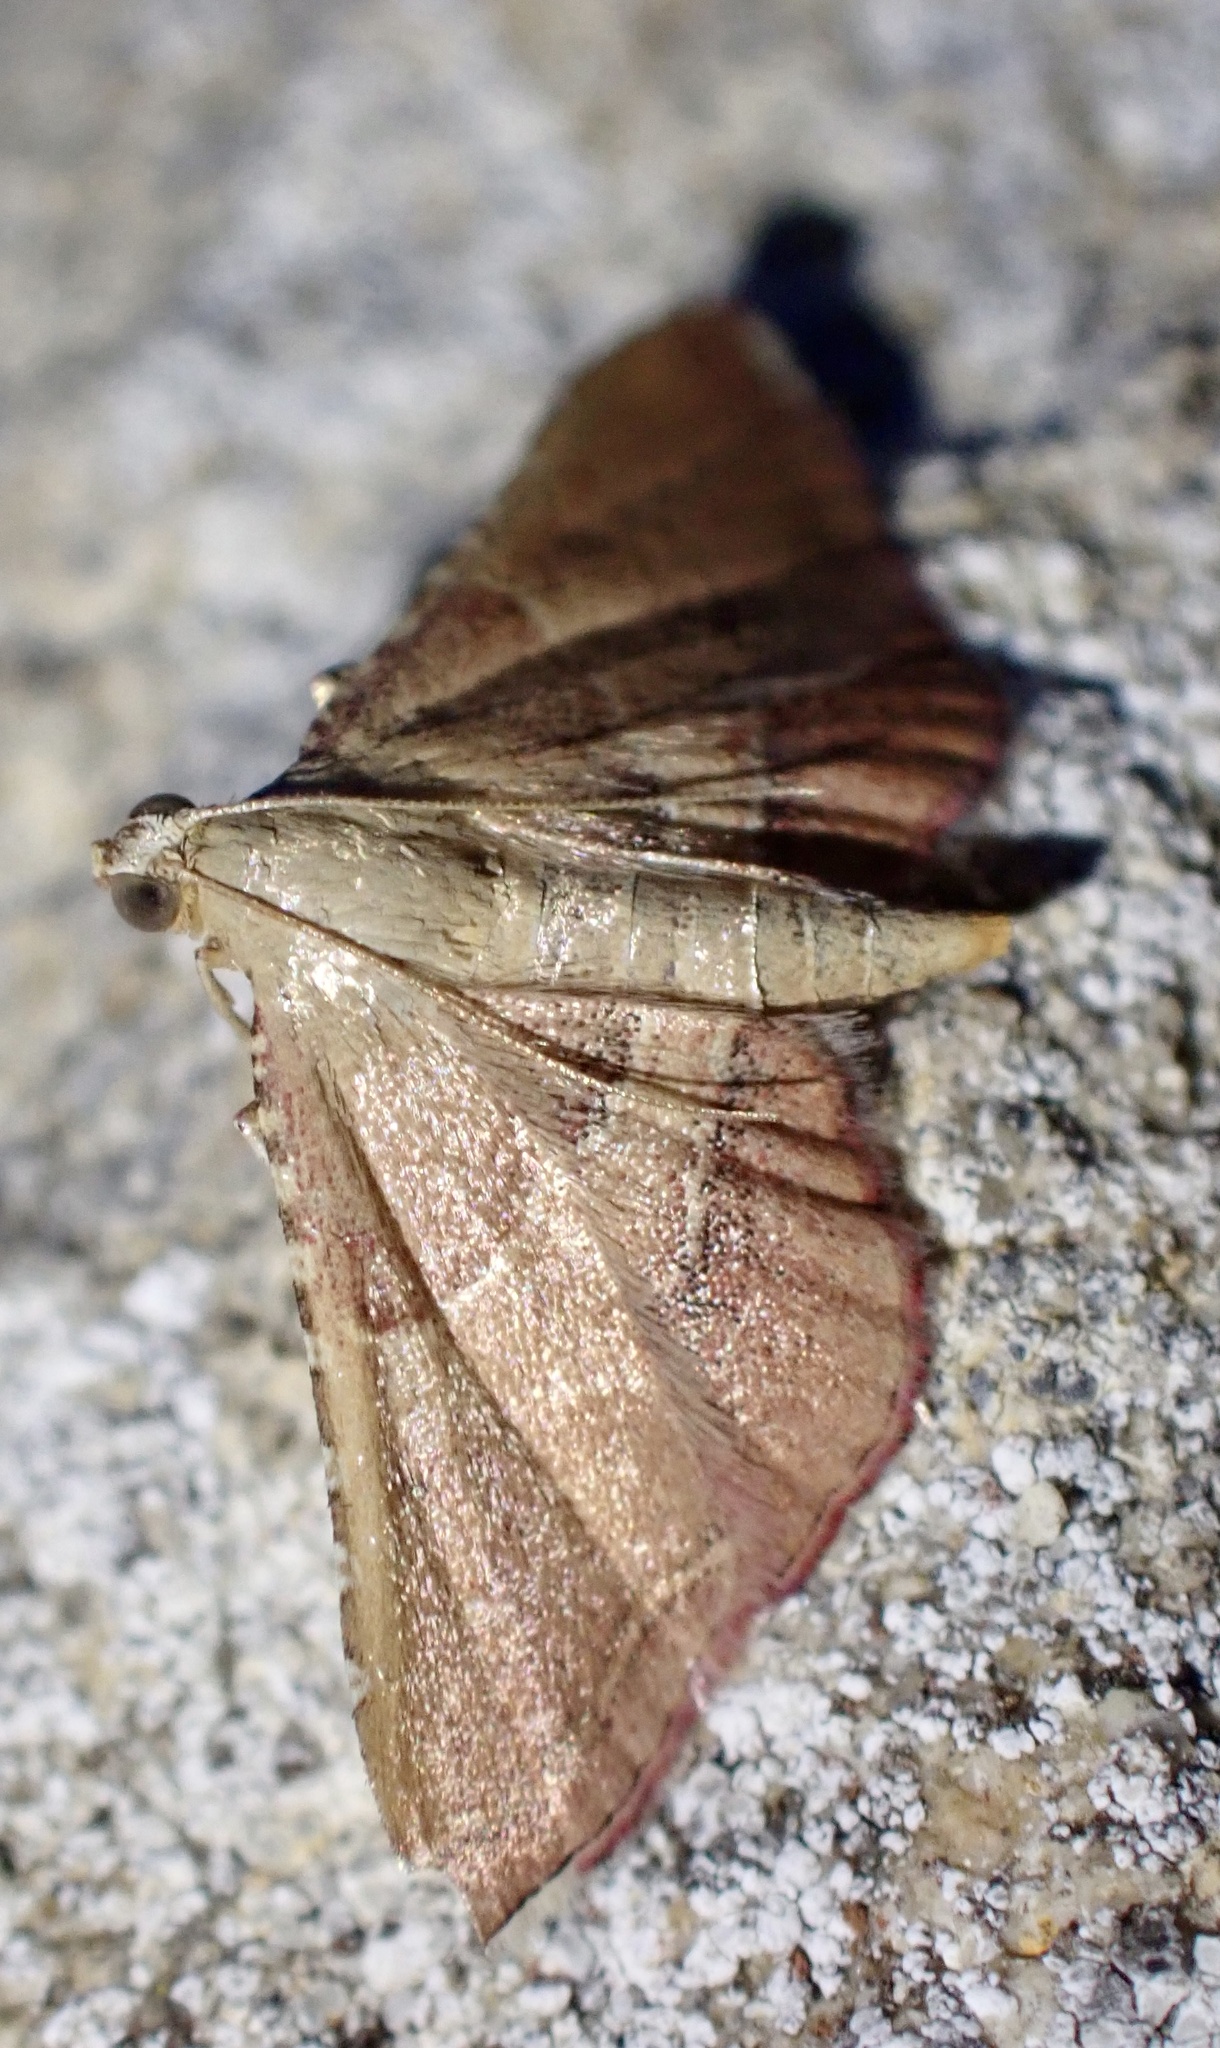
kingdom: Animalia
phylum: Arthropoda
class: Insecta
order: Lepidoptera
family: Pyralidae
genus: Endotricha
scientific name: Endotricha flammealis
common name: Rosy tabby
